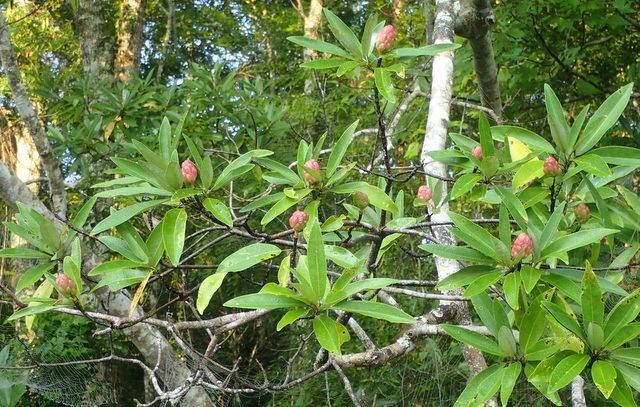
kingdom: Plantae
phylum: Tracheophyta
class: Magnoliopsida
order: Magnoliales
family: Magnoliaceae
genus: Magnolia
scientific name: Magnolia virginiana
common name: Swamp bay
